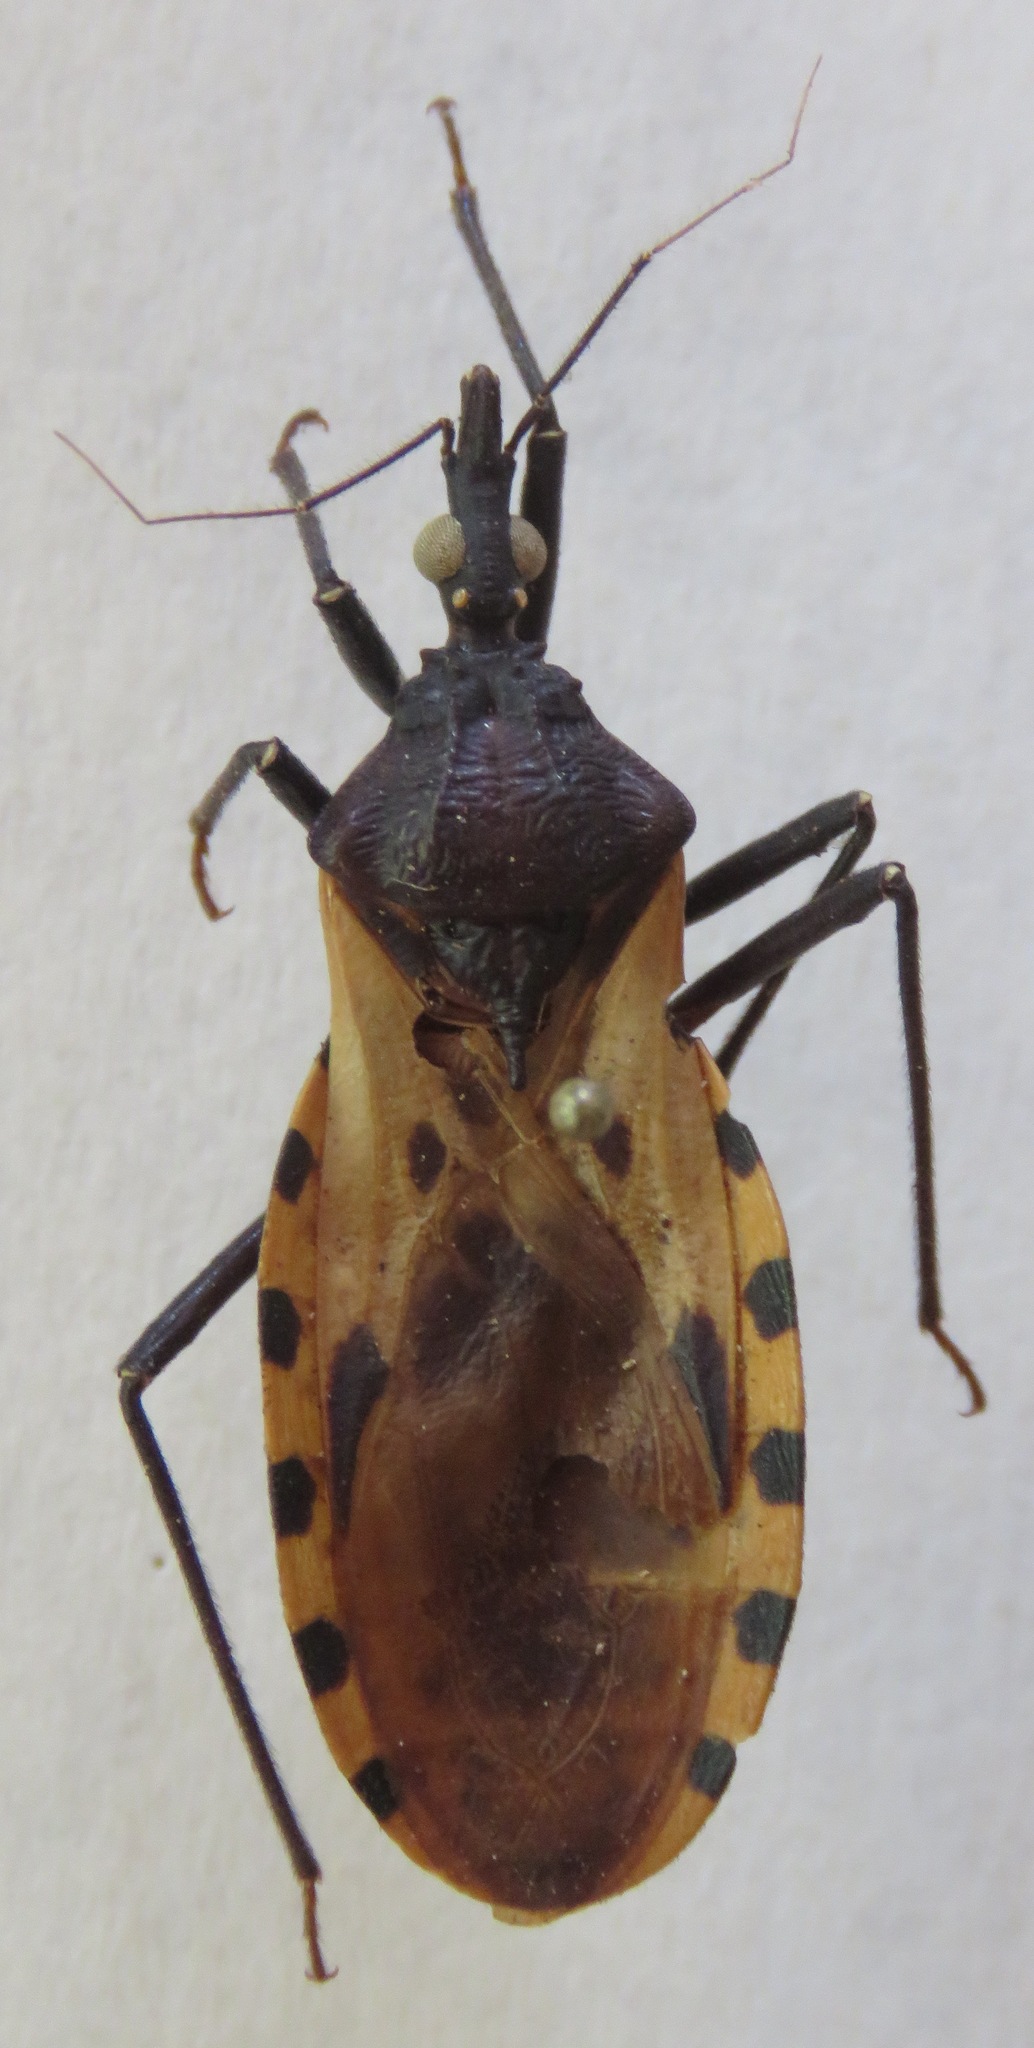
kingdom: Animalia
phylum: Arthropoda
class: Insecta
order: Hemiptera
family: Reduviidae
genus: Meccus
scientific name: Meccus dimidiatus
